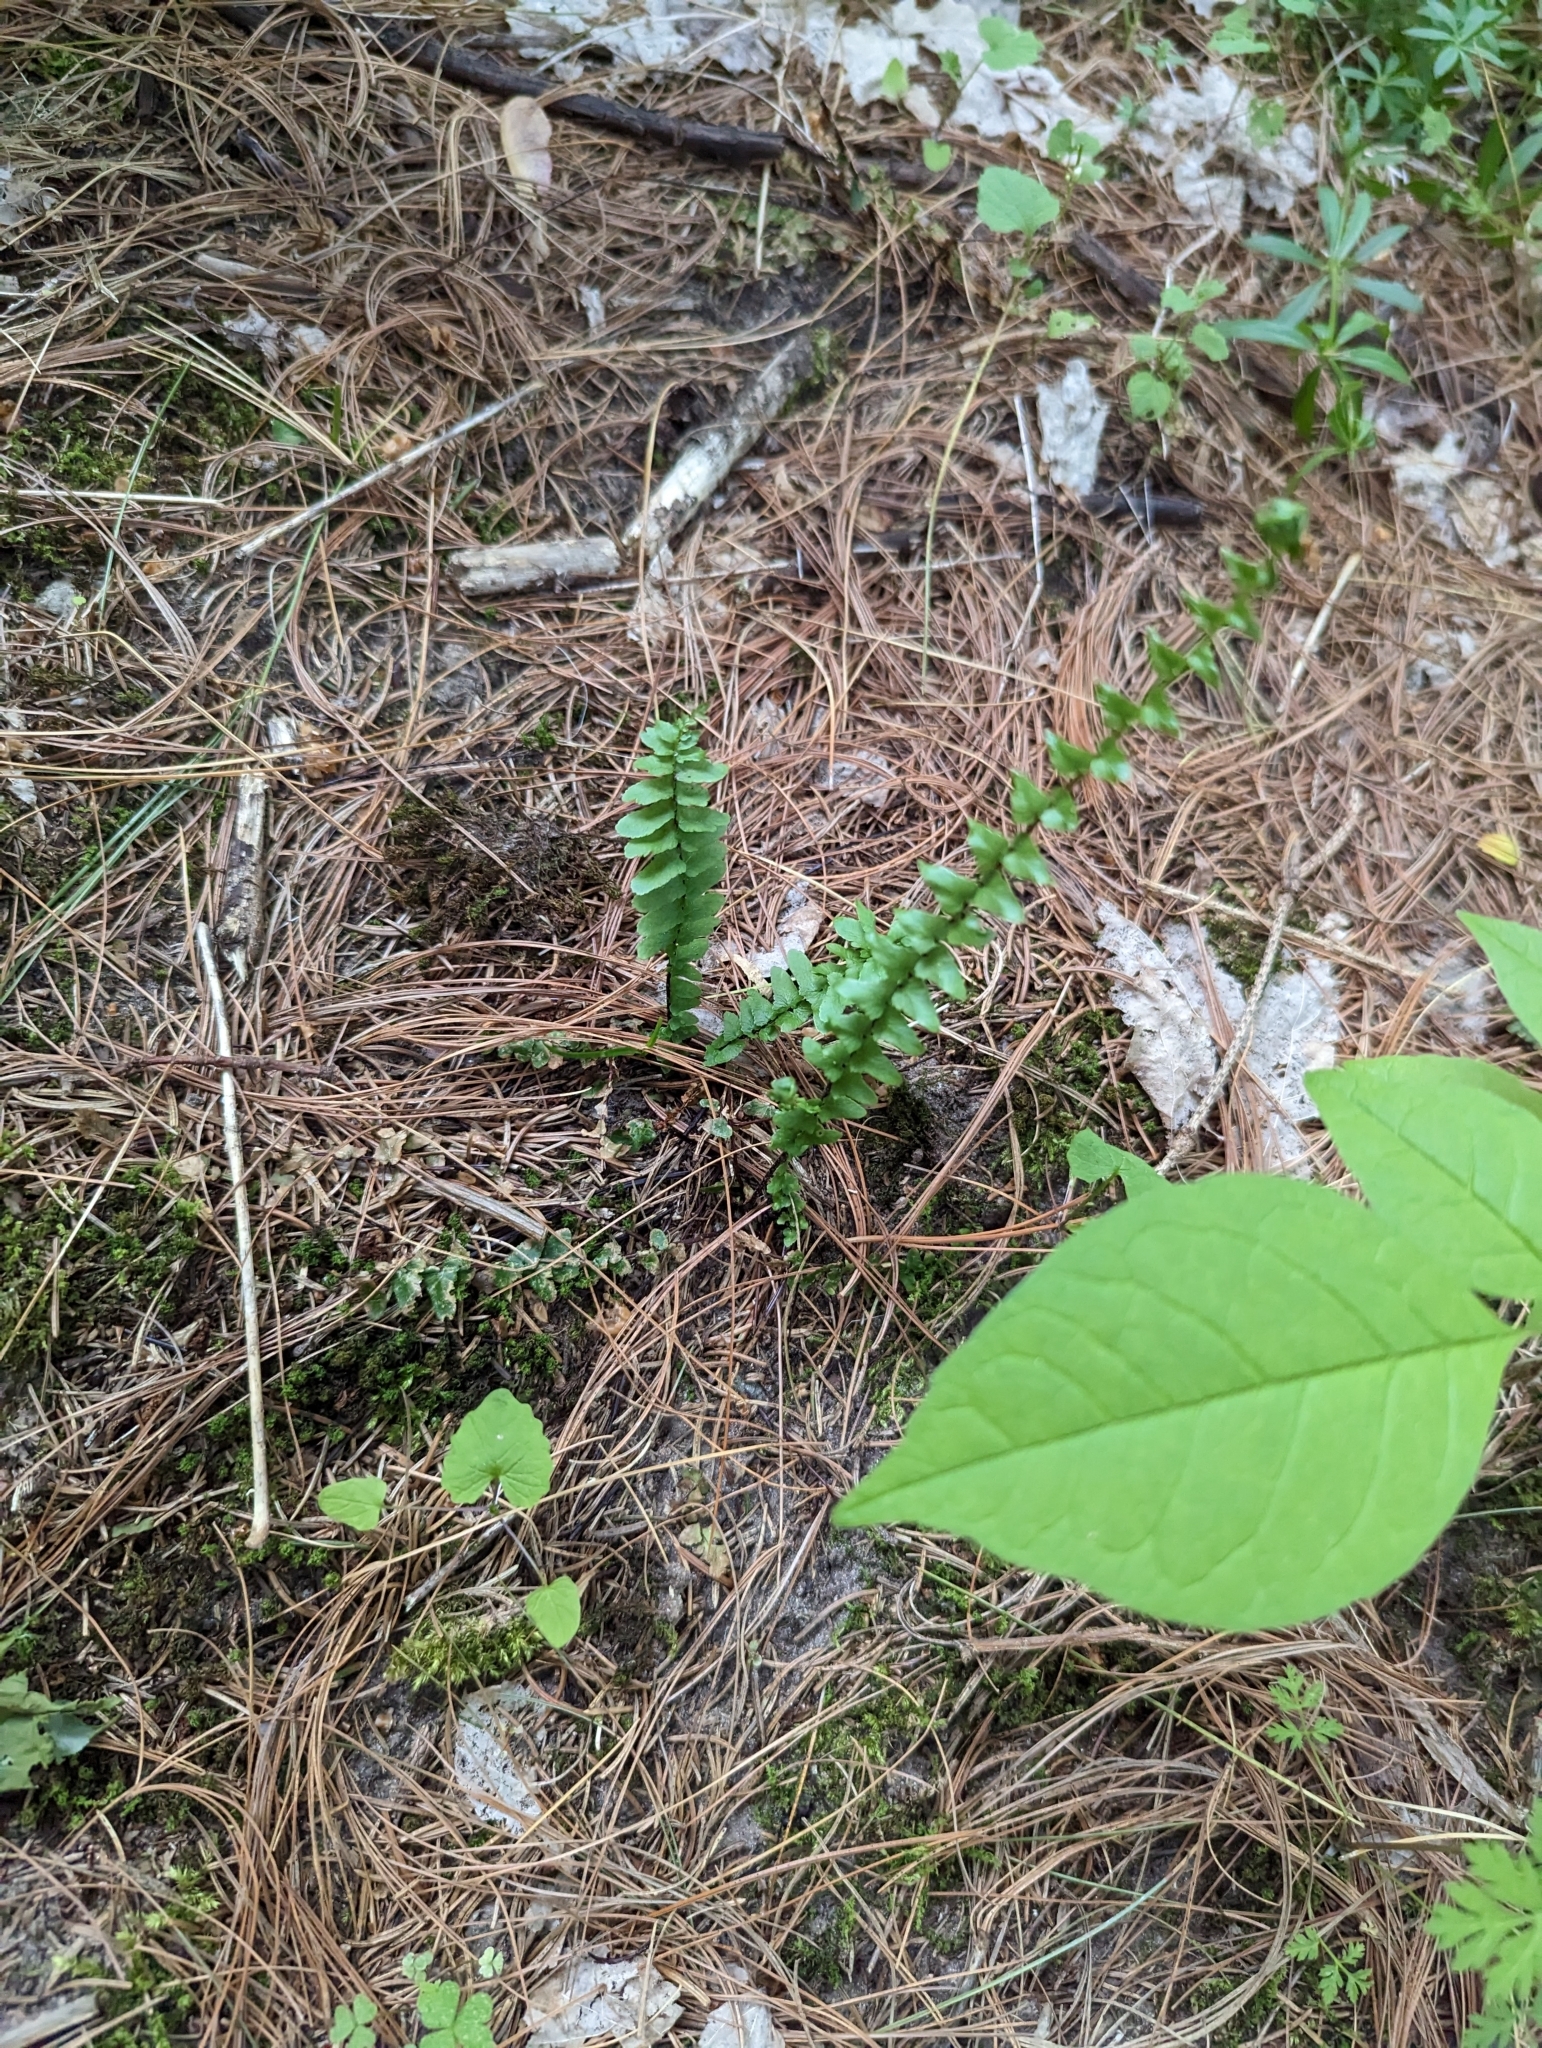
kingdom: Plantae
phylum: Tracheophyta
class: Polypodiopsida
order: Polypodiales
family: Aspleniaceae
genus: Asplenium
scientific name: Asplenium platyneuron
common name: Ebony spleenwort
